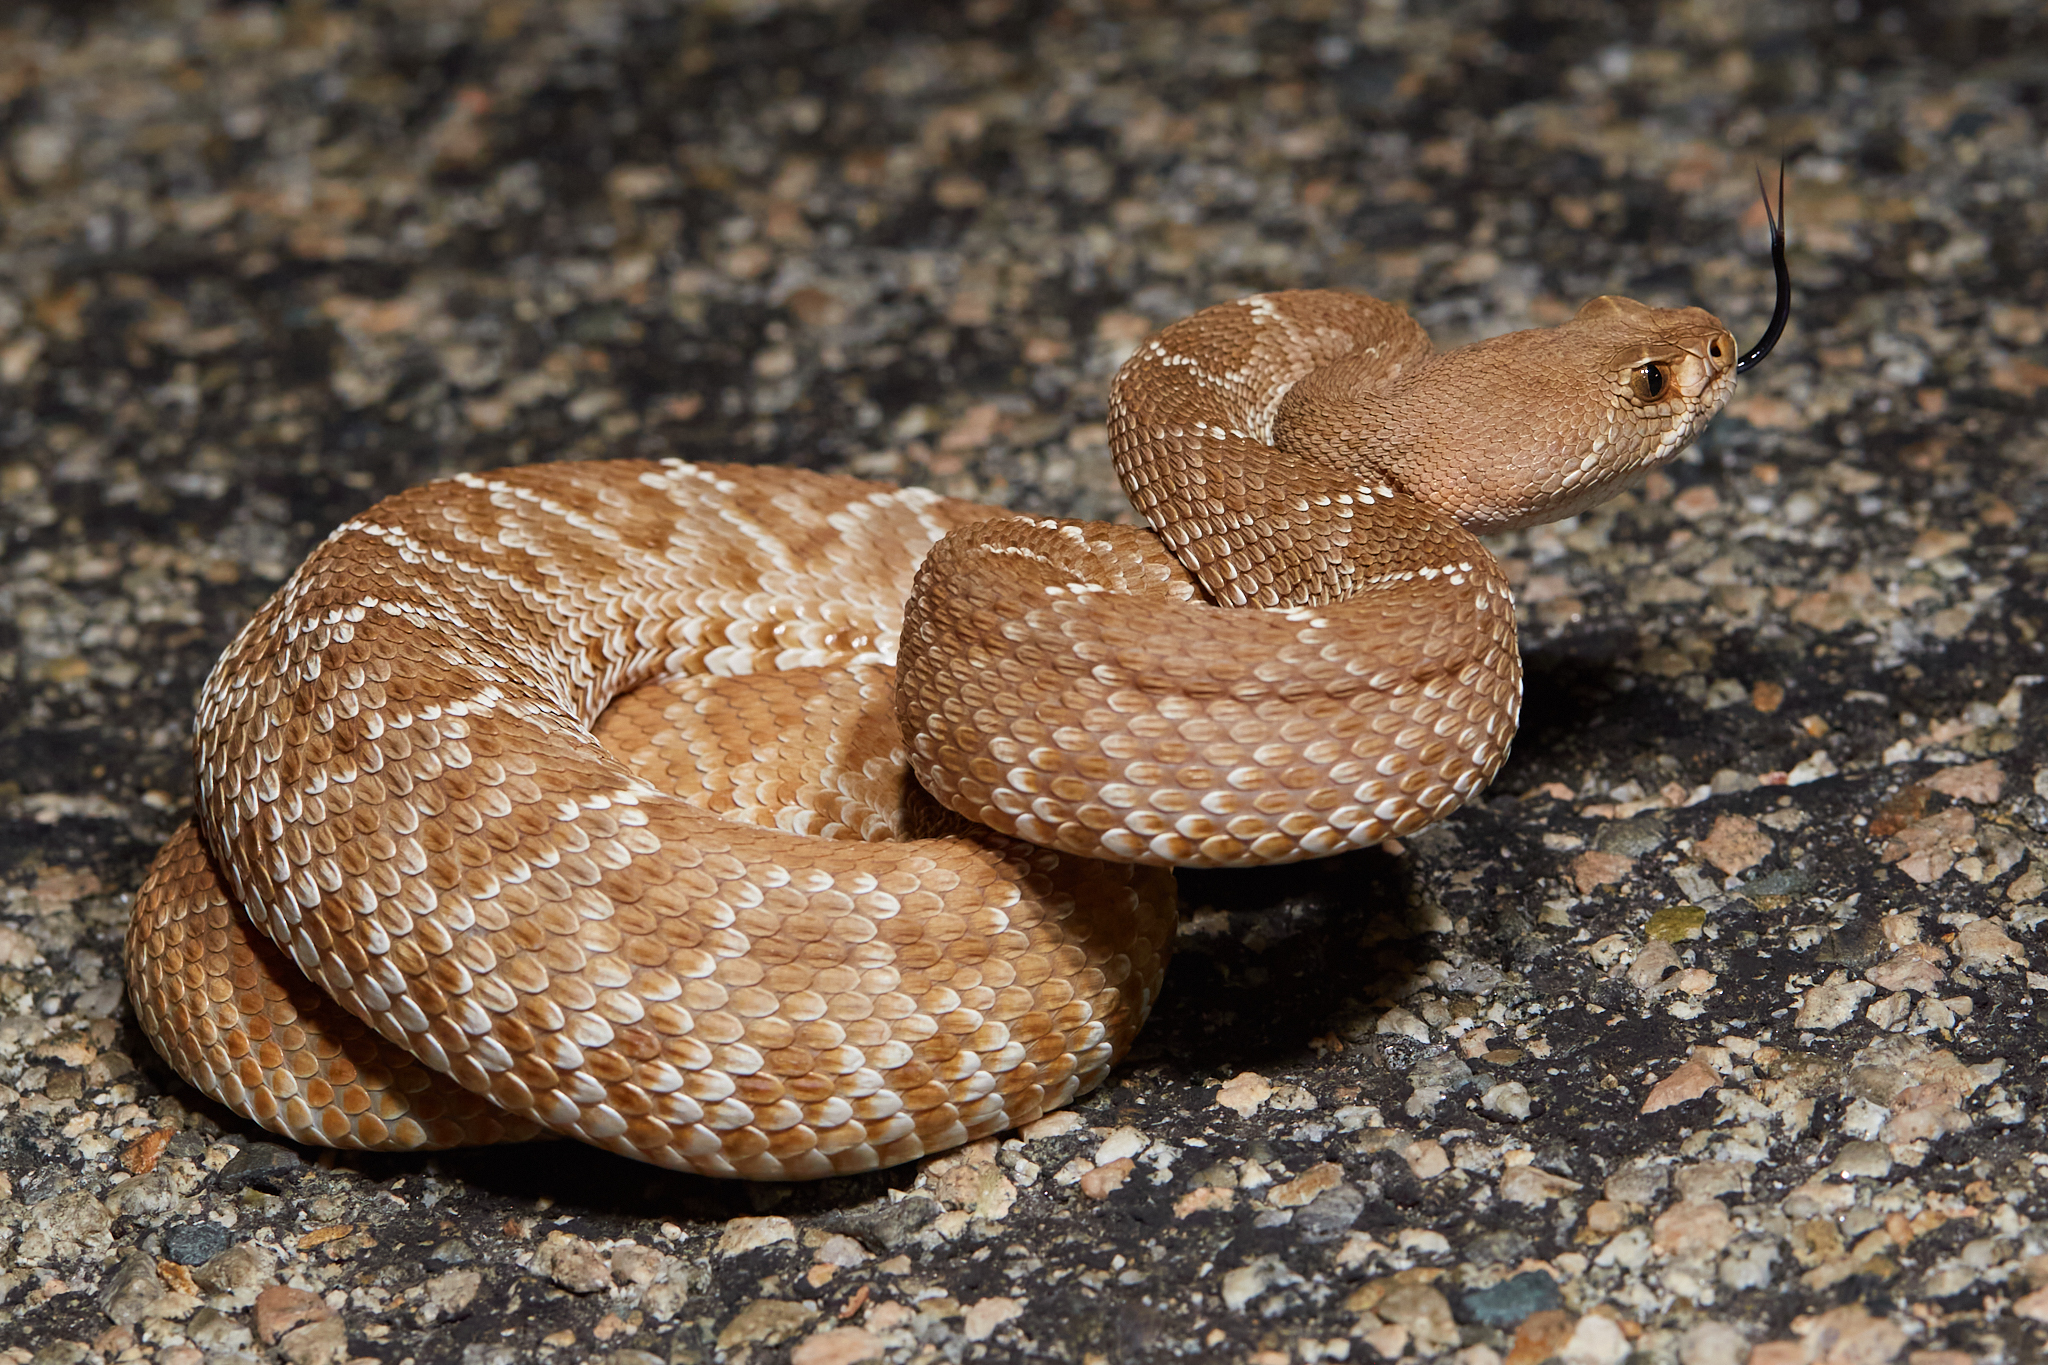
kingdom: Animalia
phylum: Chordata
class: Squamata
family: Viperidae
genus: Crotalus
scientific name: Crotalus ruber
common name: Red diamond rattlesnake
